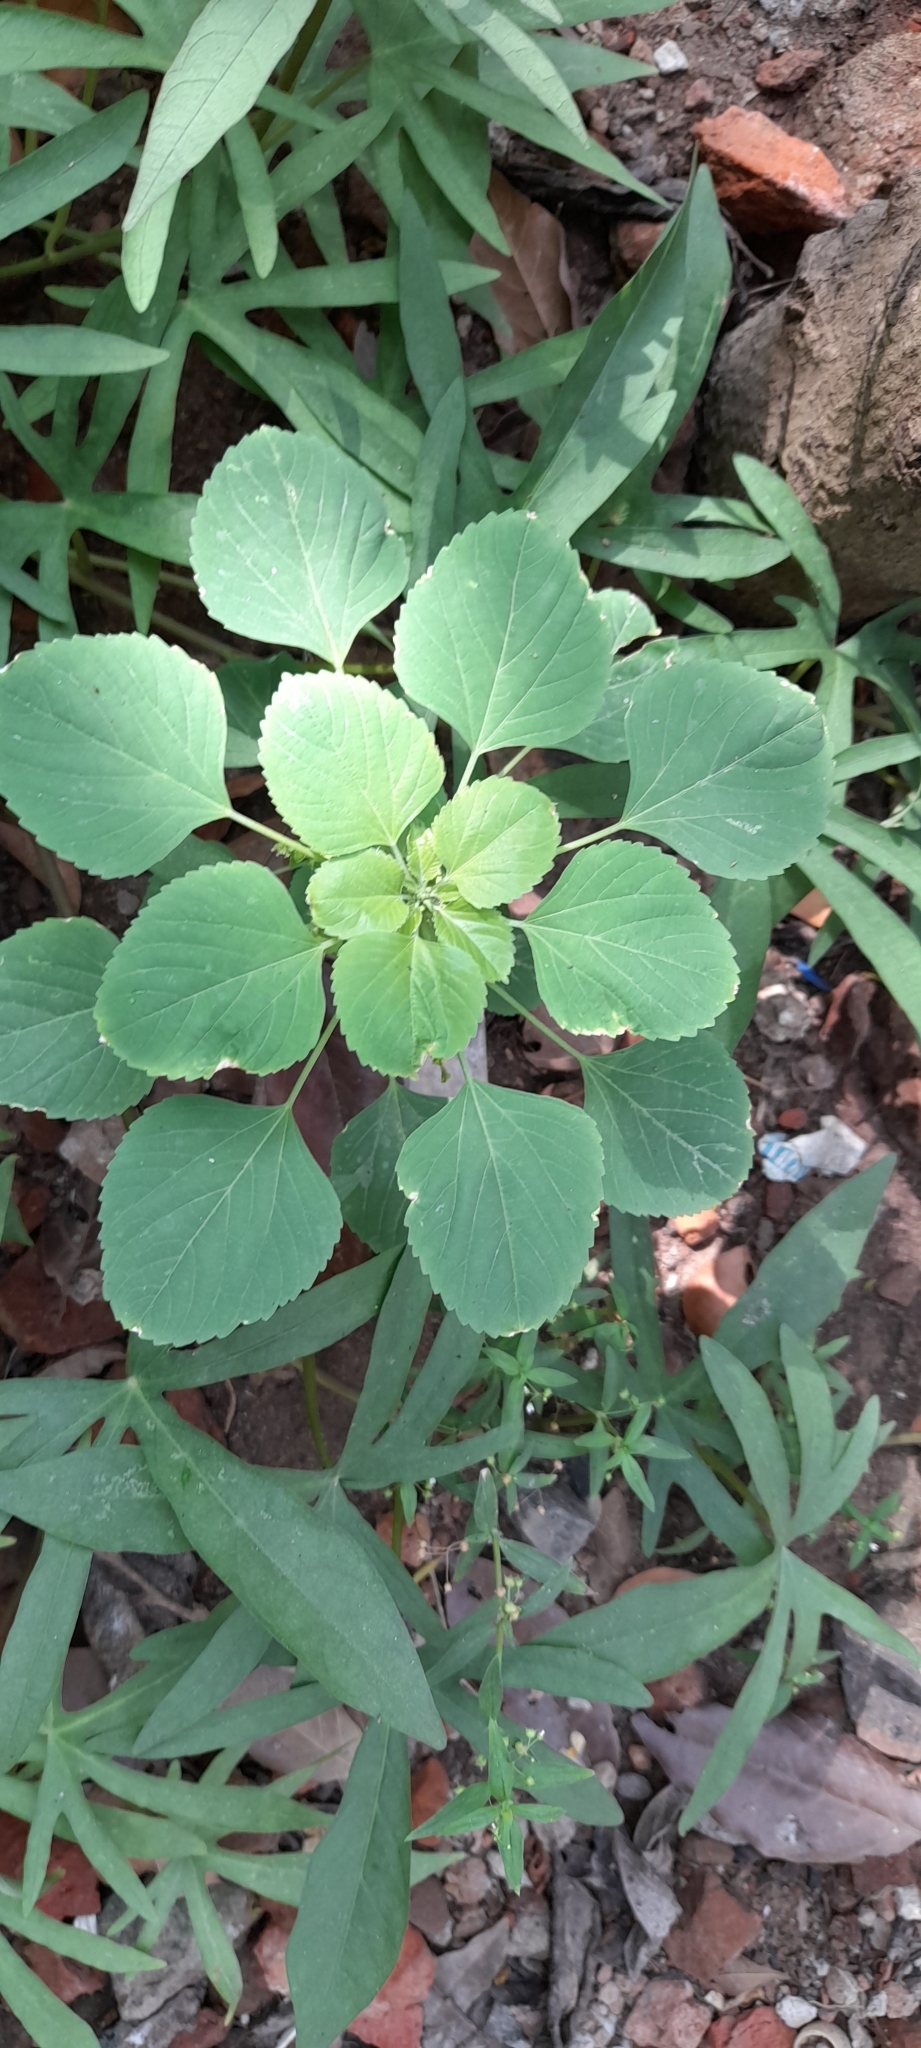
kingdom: Plantae
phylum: Tracheophyta
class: Magnoliopsida
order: Malpighiales
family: Euphorbiaceae
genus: Acalypha
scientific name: Acalypha indica
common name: Indian acalypha
